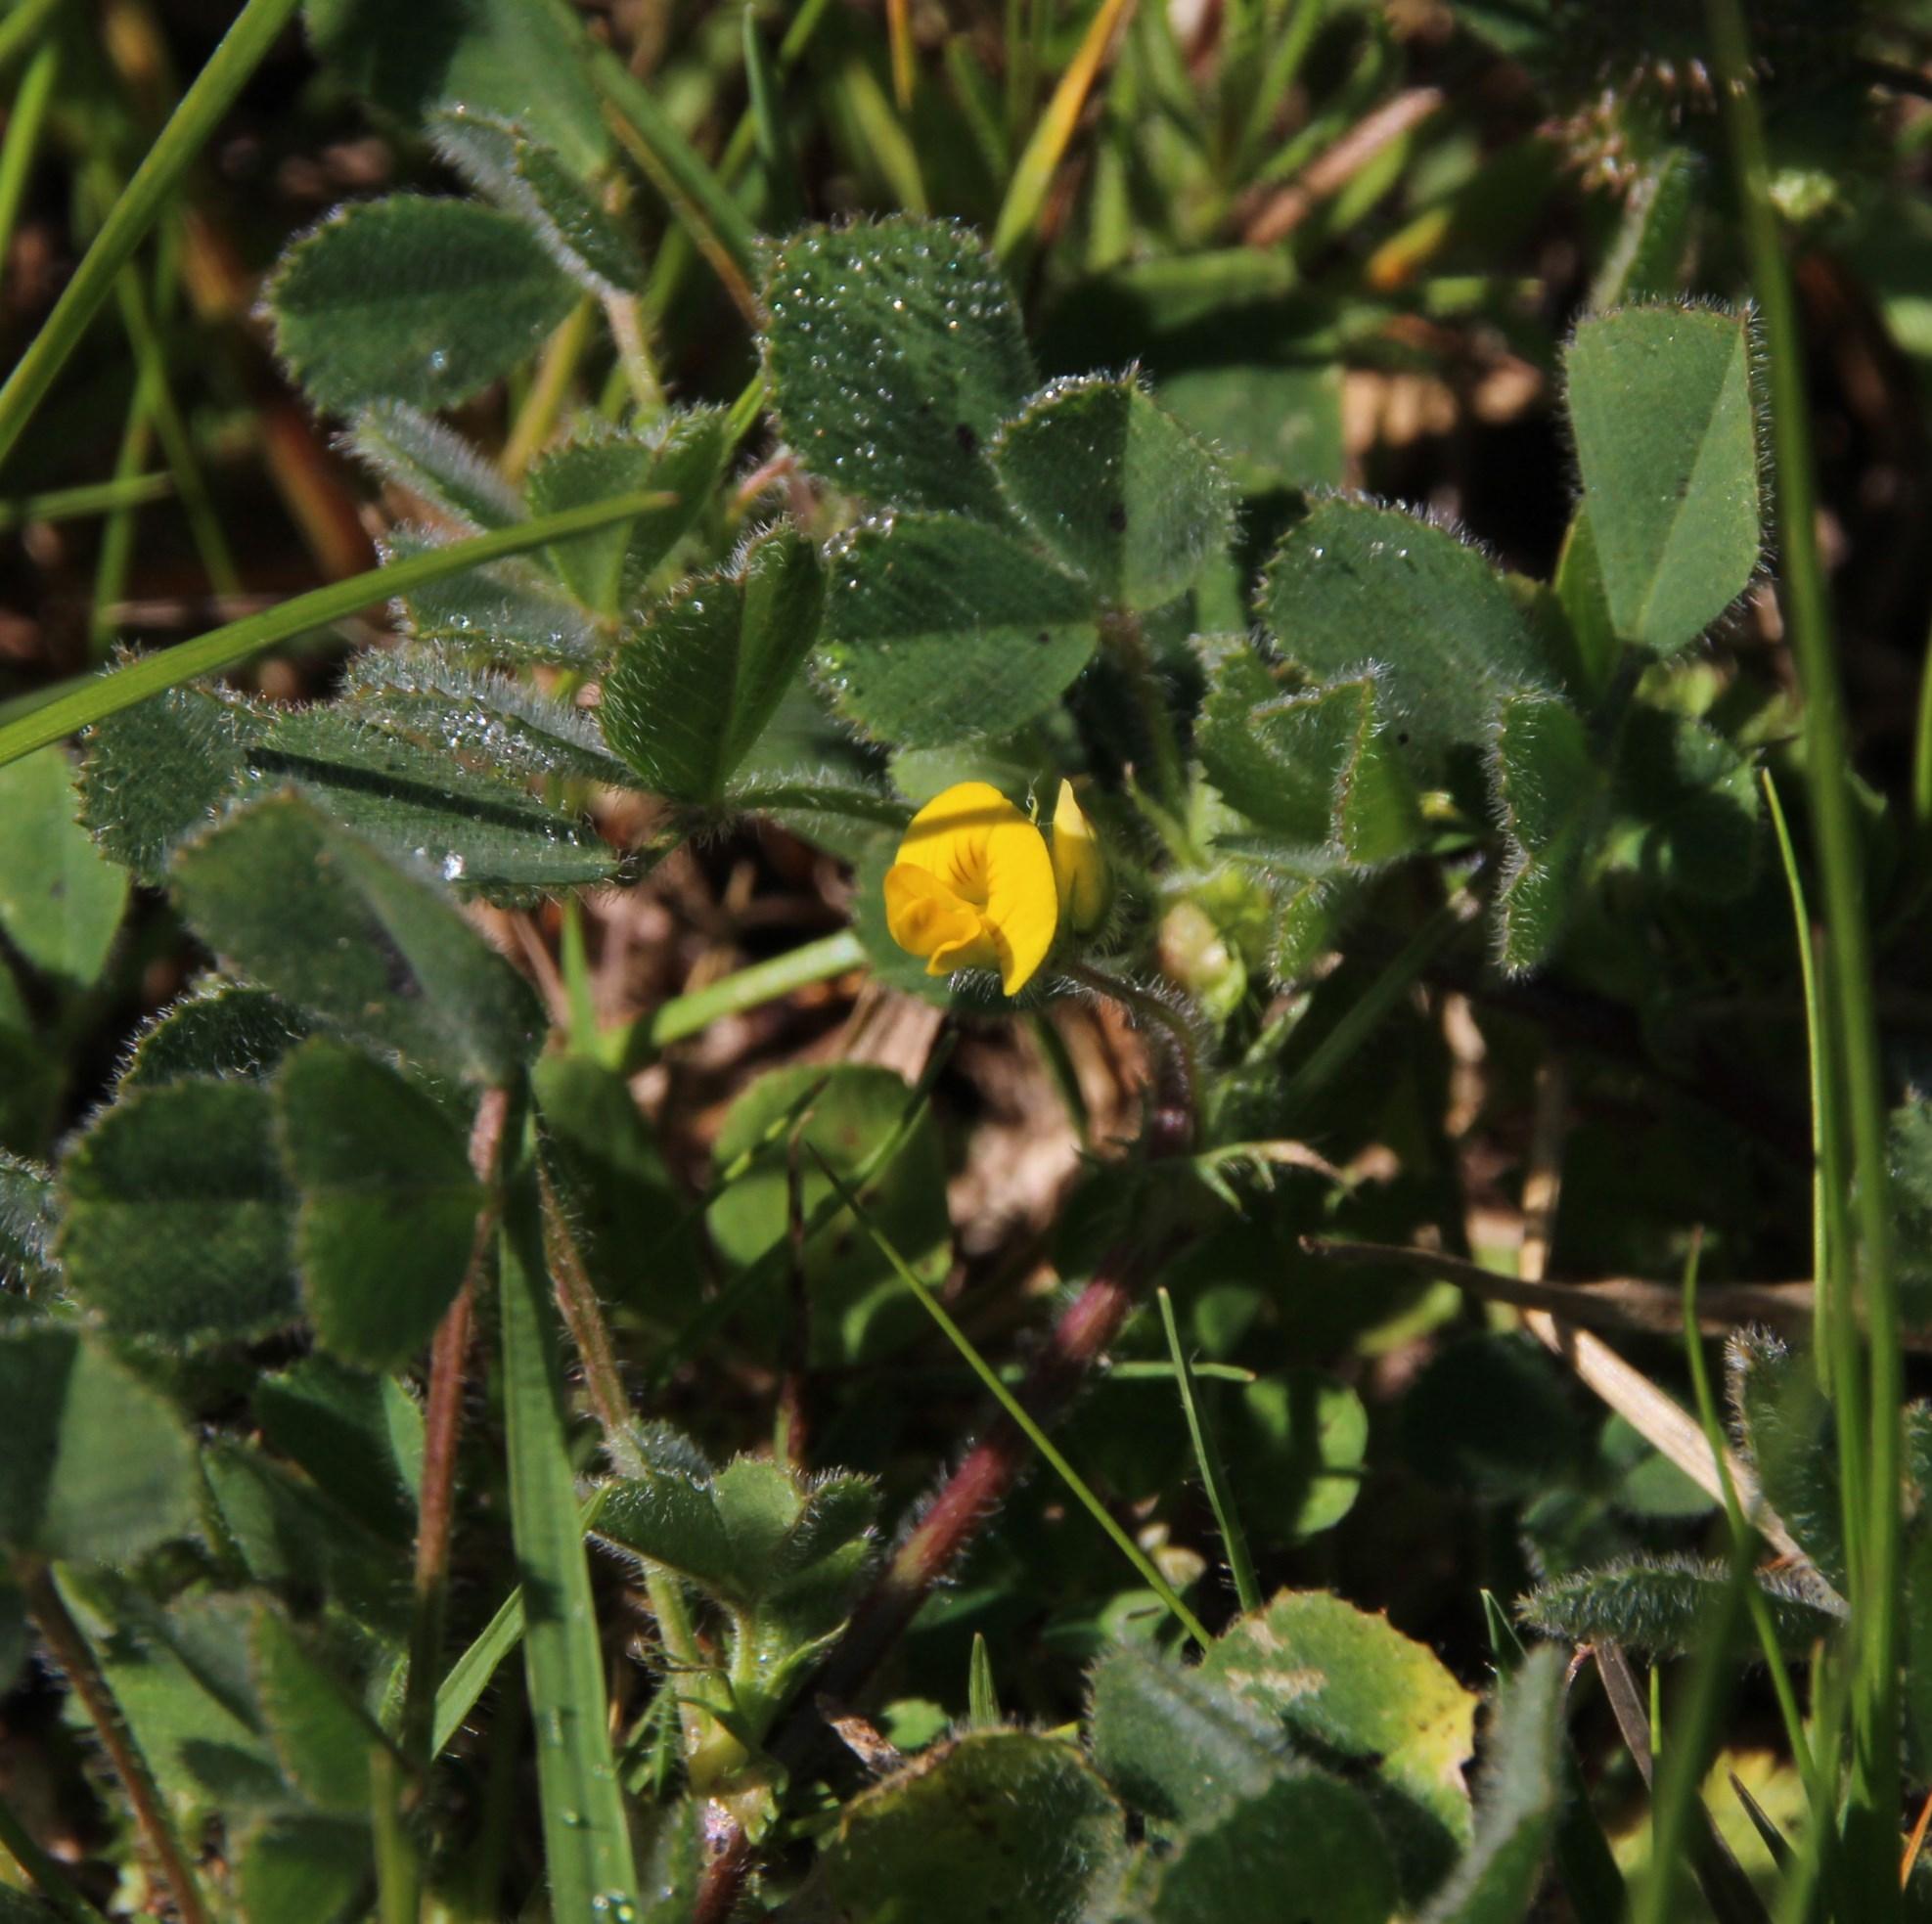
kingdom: Plantae
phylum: Tracheophyta
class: Magnoliopsida
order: Fabales
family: Fabaceae
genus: Medicago
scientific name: Medicago laciniata
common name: Tattered medick
